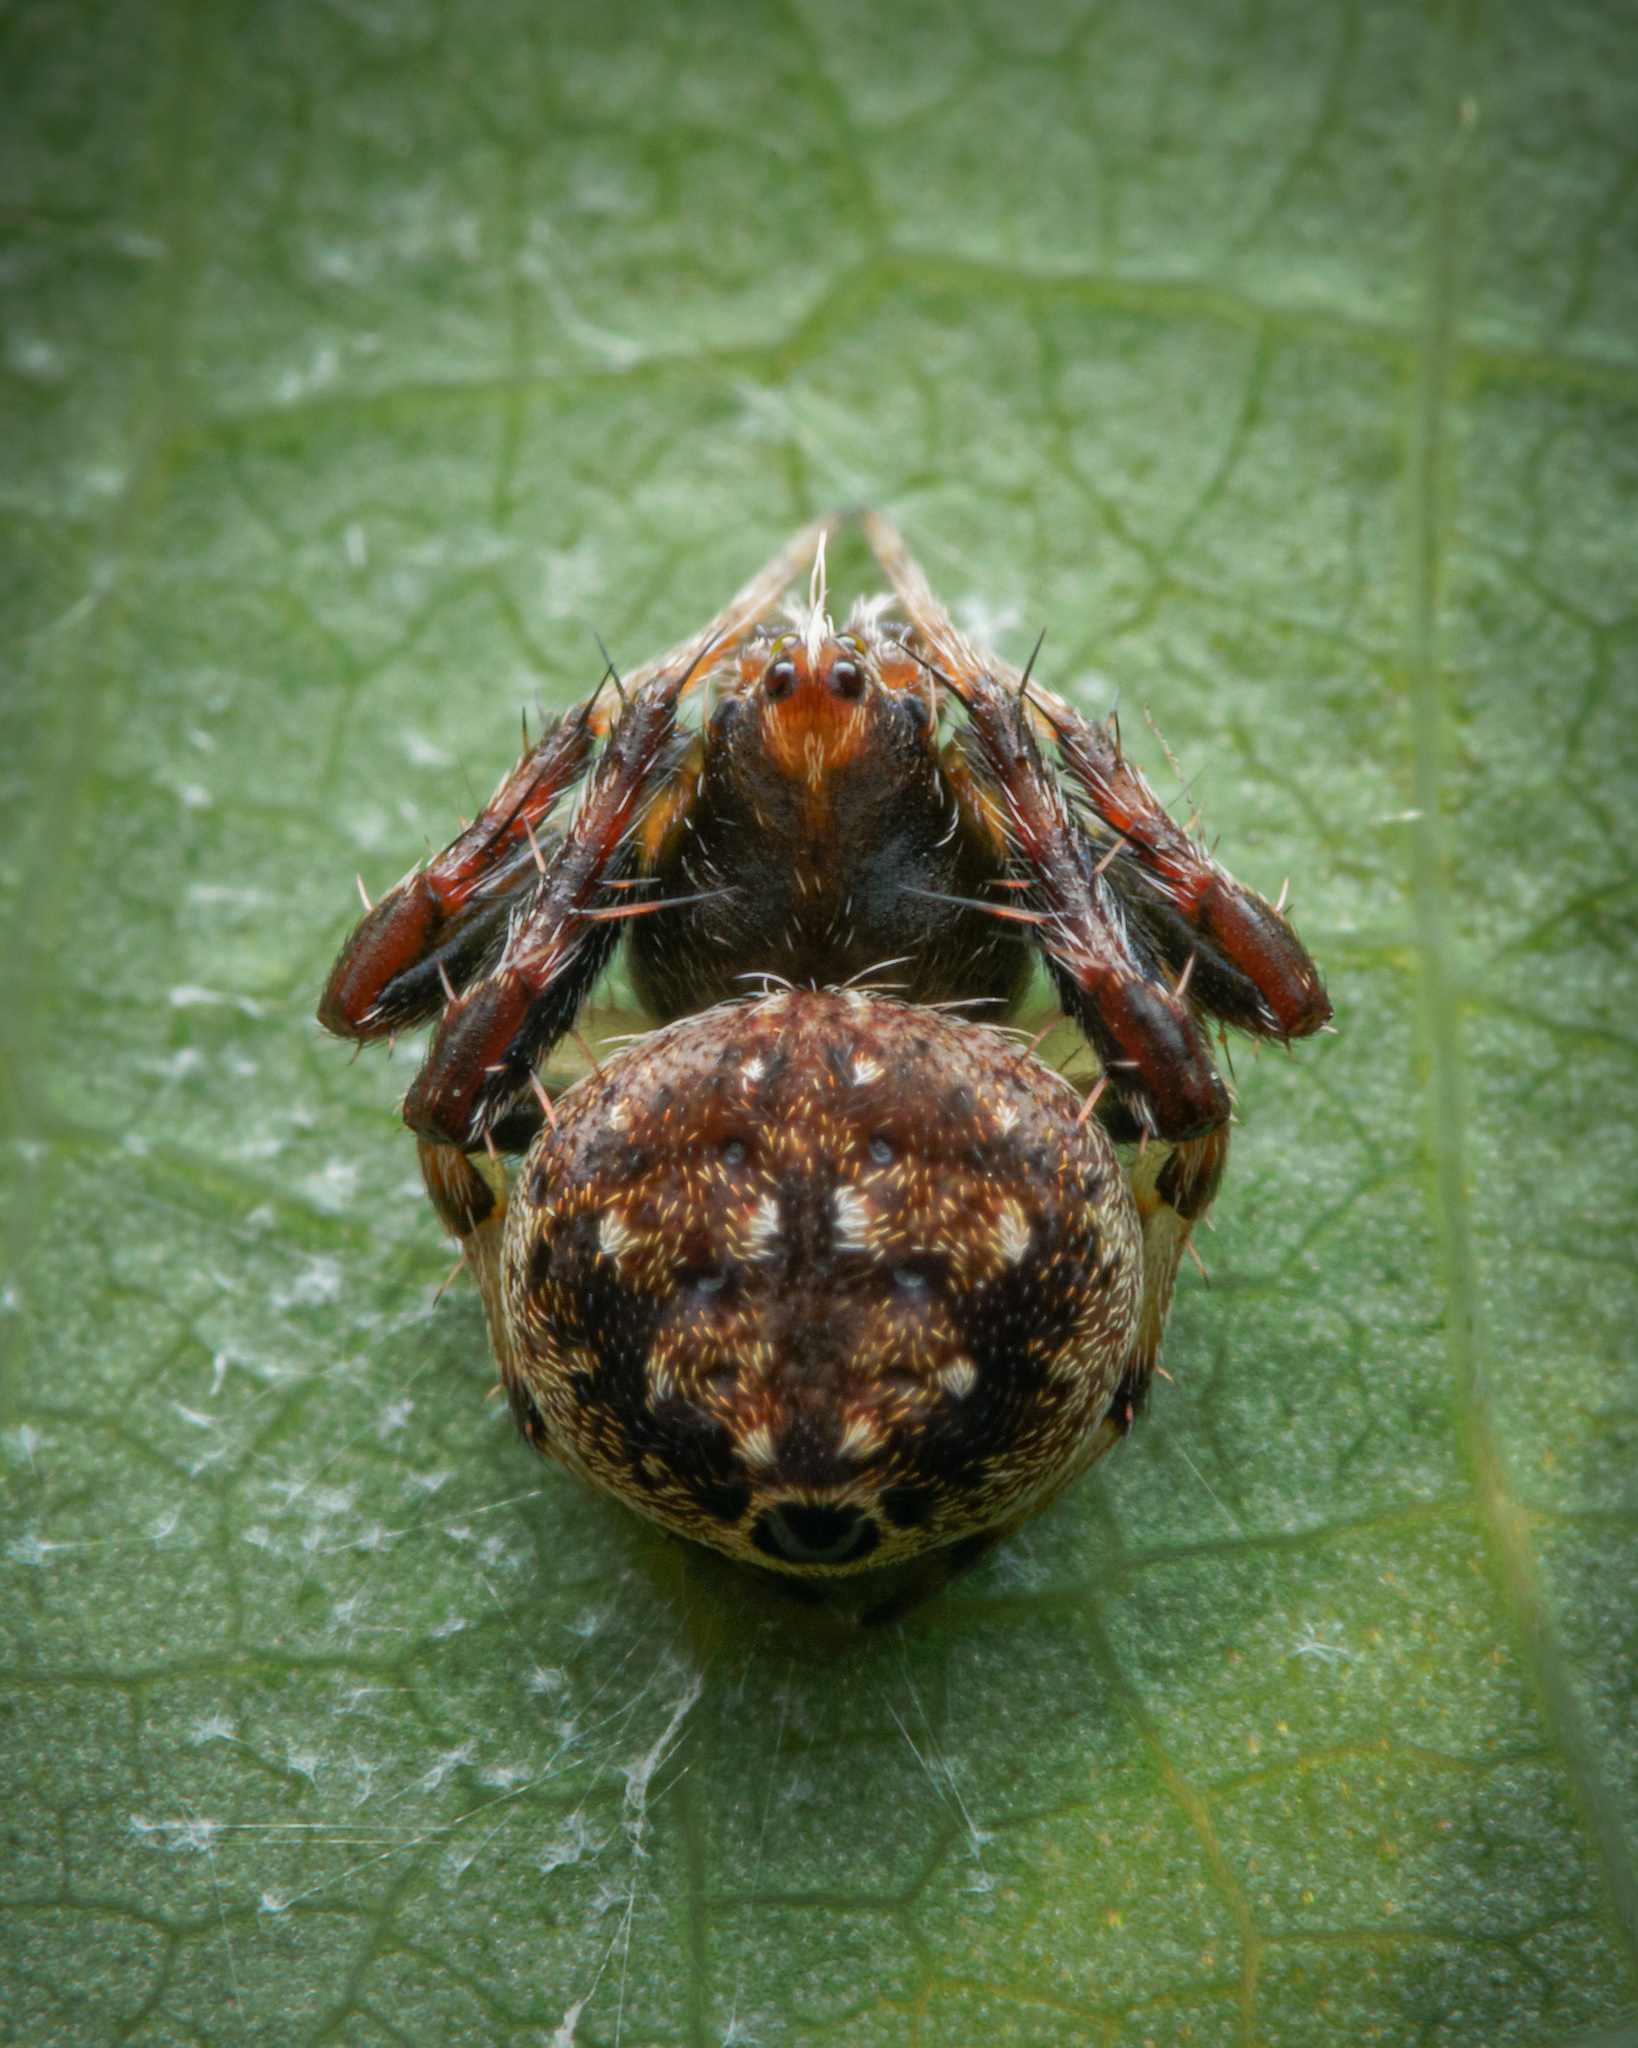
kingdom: Animalia
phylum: Arthropoda
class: Arachnida
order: Araneae
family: Araneidae
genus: Eriovixia
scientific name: Eriovixia excelsa
